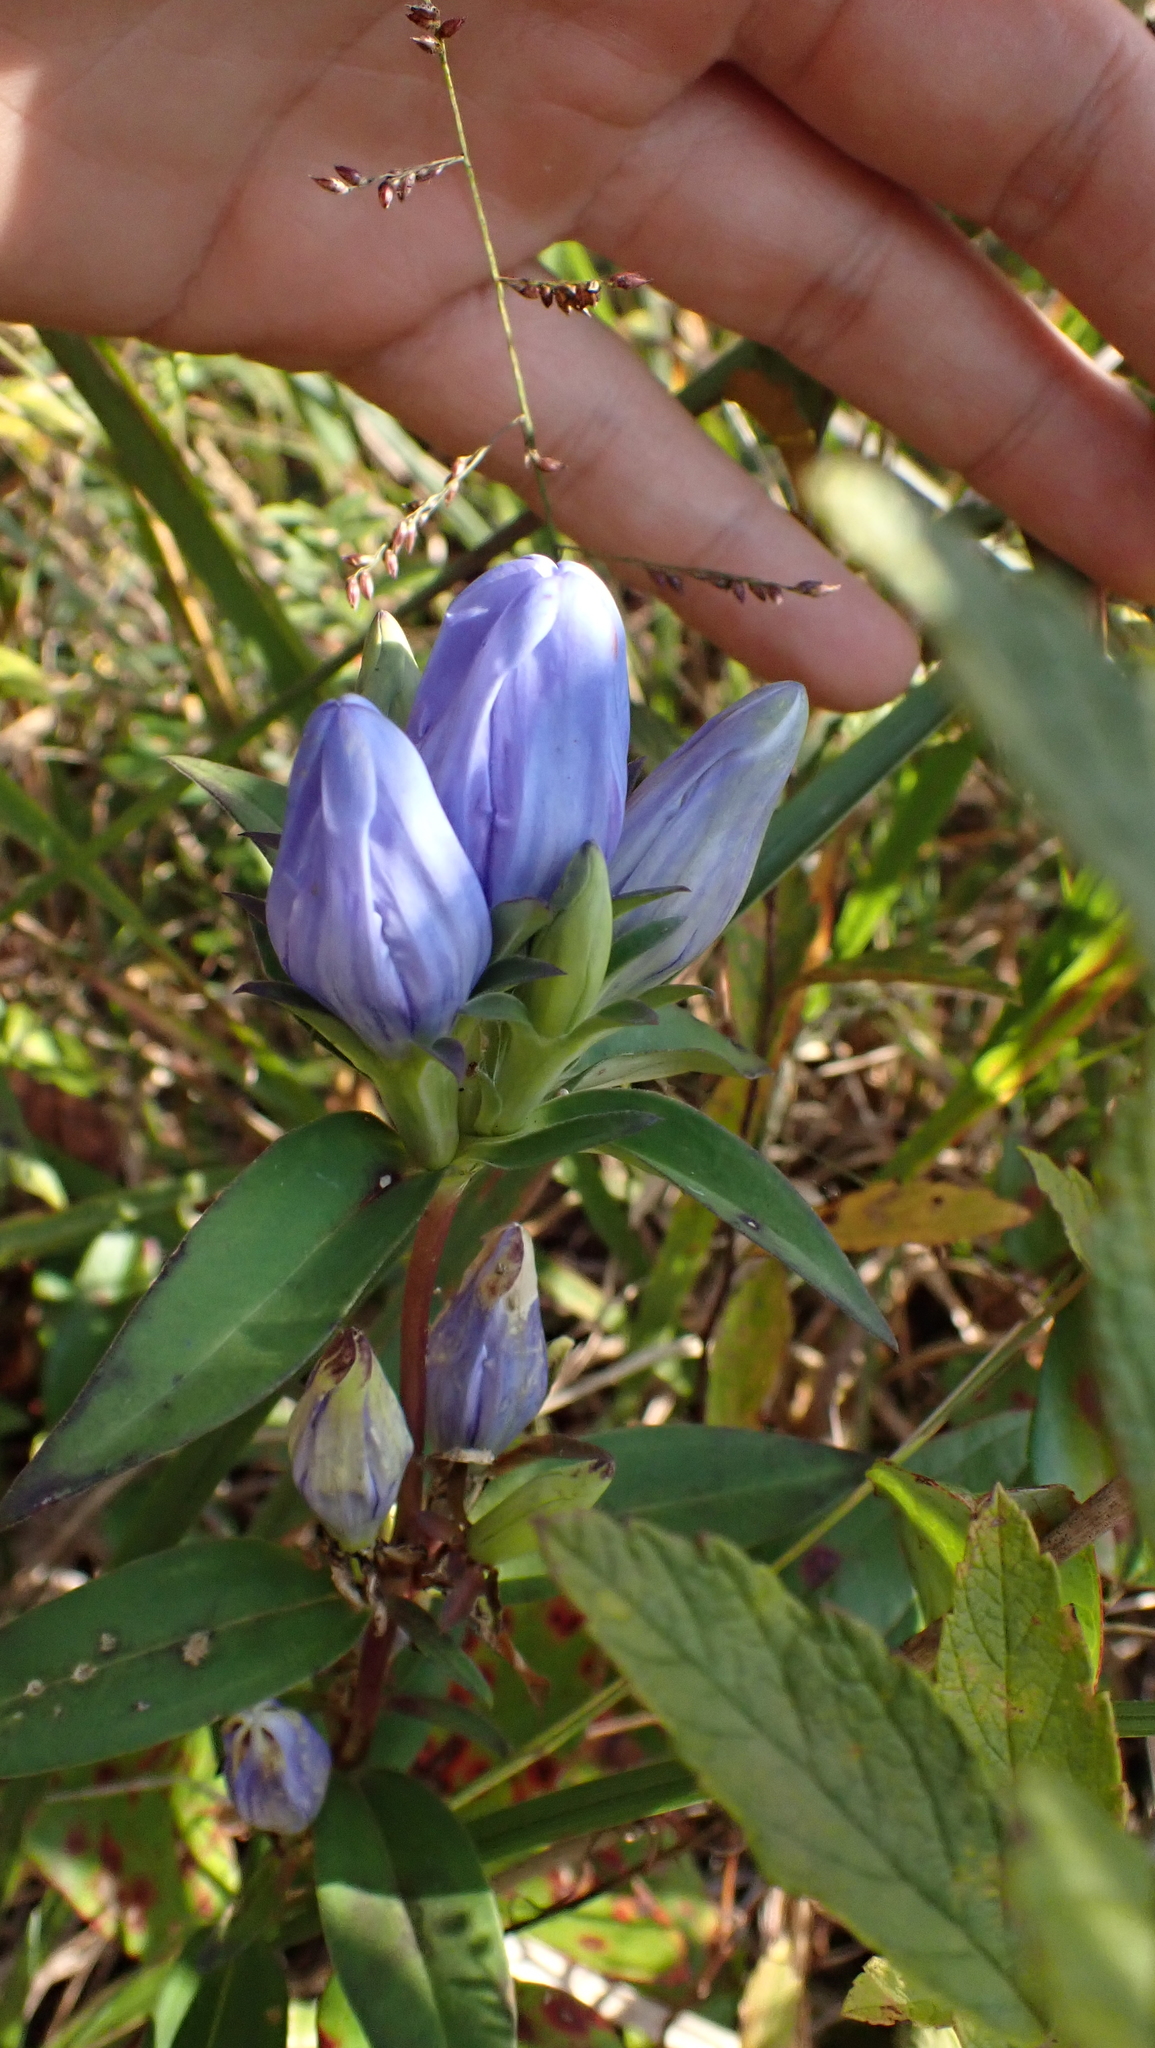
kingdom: Plantae
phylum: Tracheophyta
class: Magnoliopsida
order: Gentianales
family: Gentianaceae
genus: Gentiana
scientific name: Gentiana saponaria
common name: Soapwort gentian
